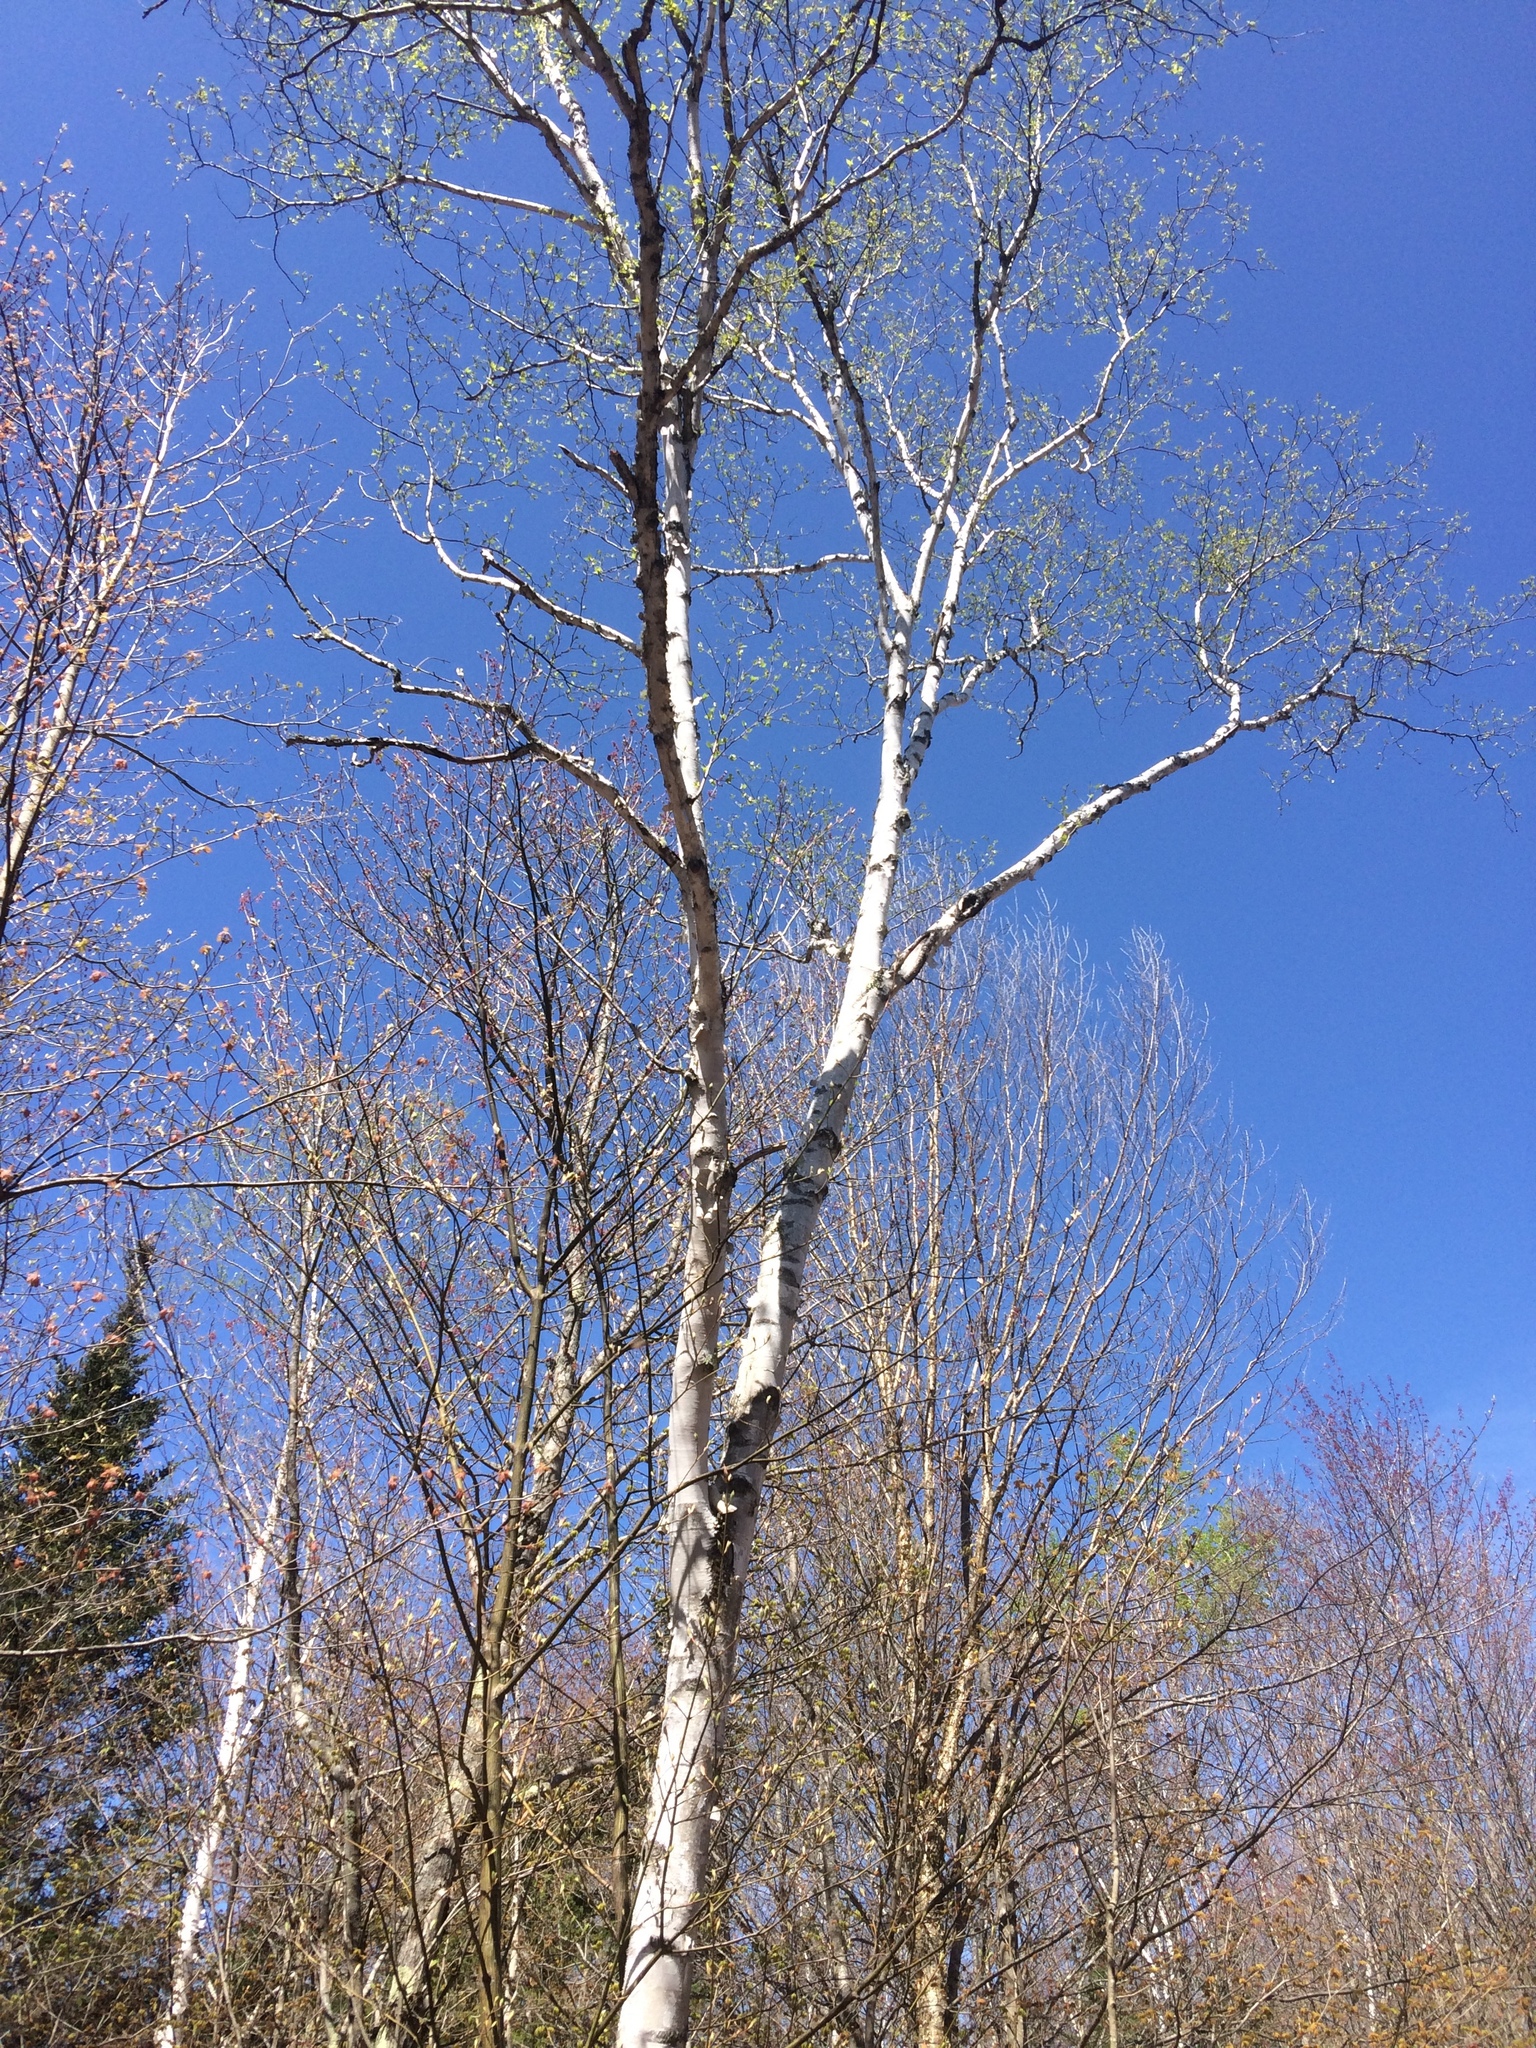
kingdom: Plantae
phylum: Tracheophyta
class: Magnoliopsida
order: Fagales
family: Betulaceae
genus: Betula
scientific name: Betula papyrifera
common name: Paper birch
